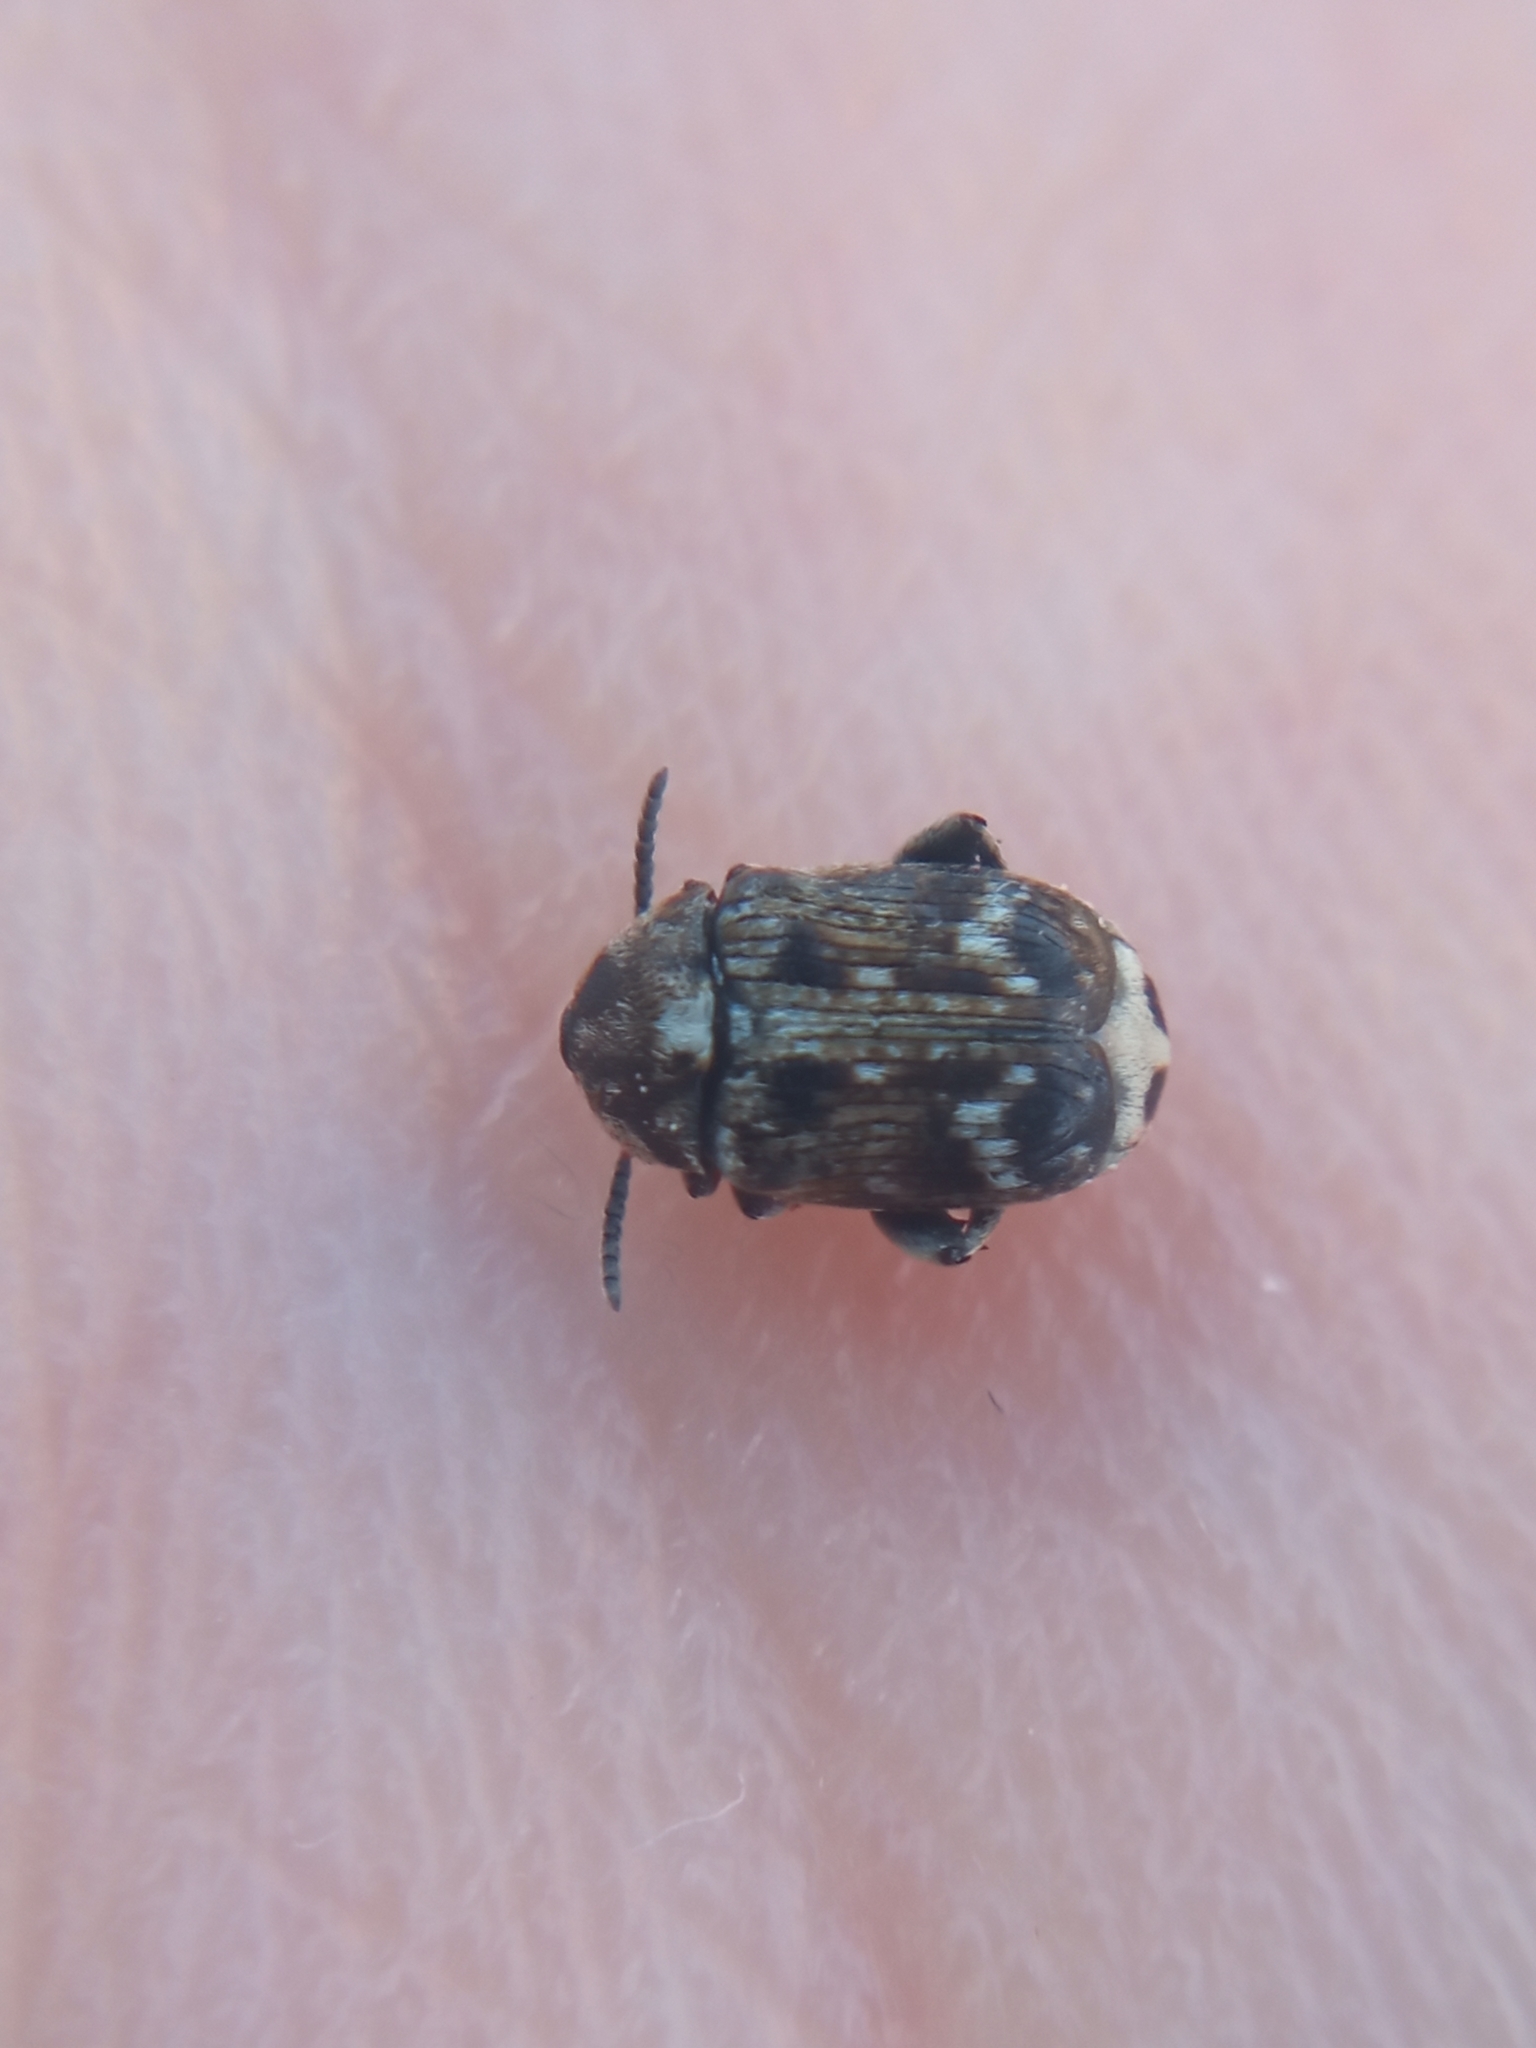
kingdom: Animalia
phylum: Arthropoda
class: Insecta
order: Coleoptera
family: Chrysomelidae
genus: Bruchus
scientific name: Bruchus pisorum
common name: Pea weevil
